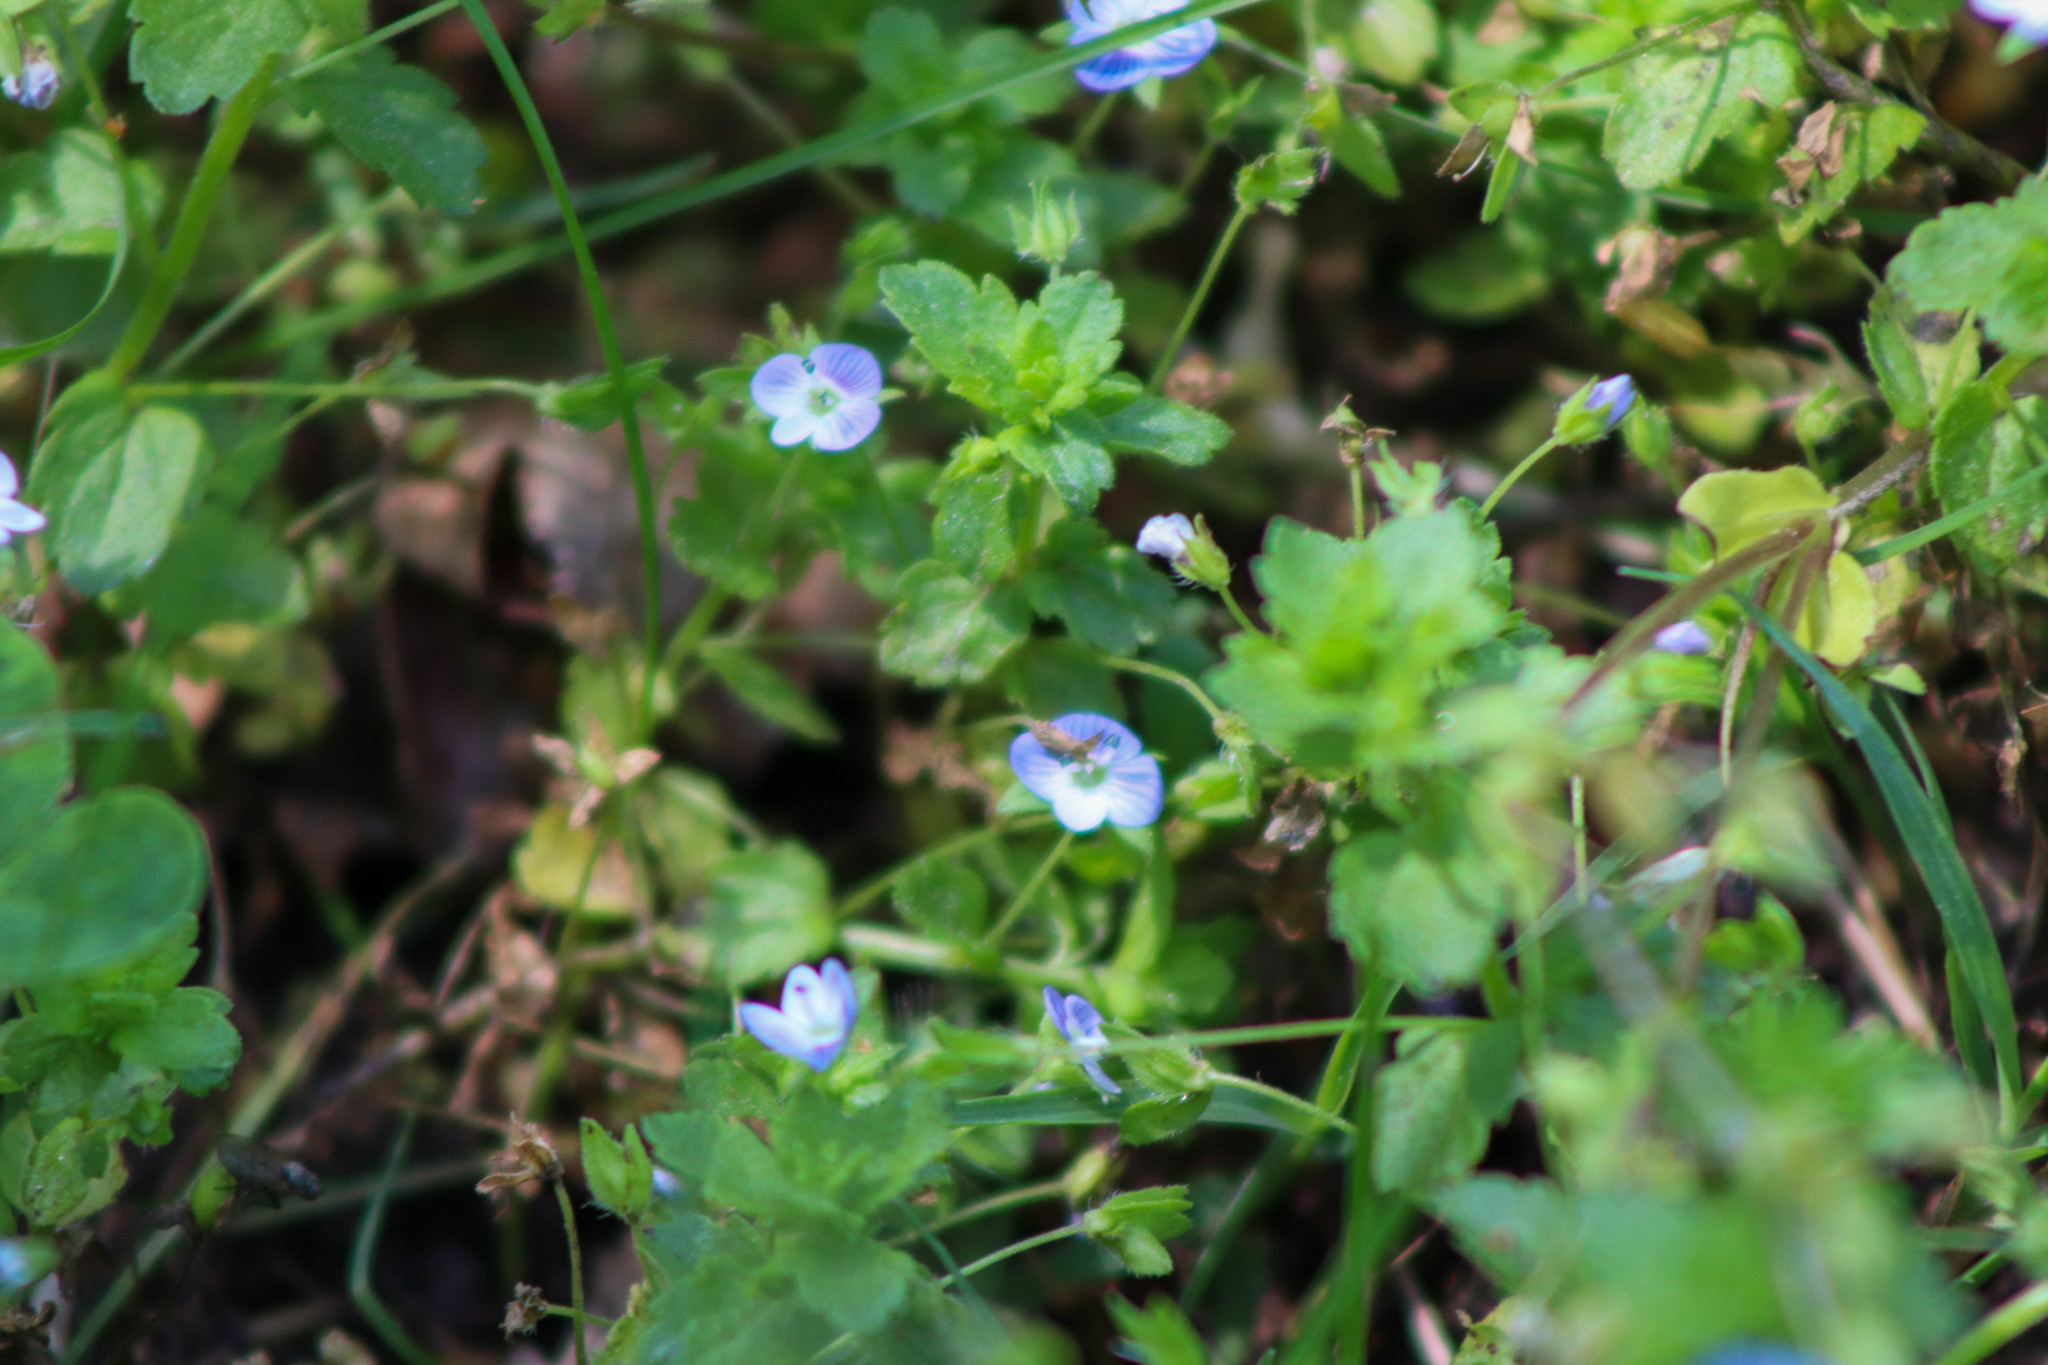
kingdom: Plantae
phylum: Tracheophyta
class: Magnoliopsida
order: Lamiales
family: Plantaginaceae
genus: Veronica
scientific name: Veronica persica
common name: Common field-speedwell
